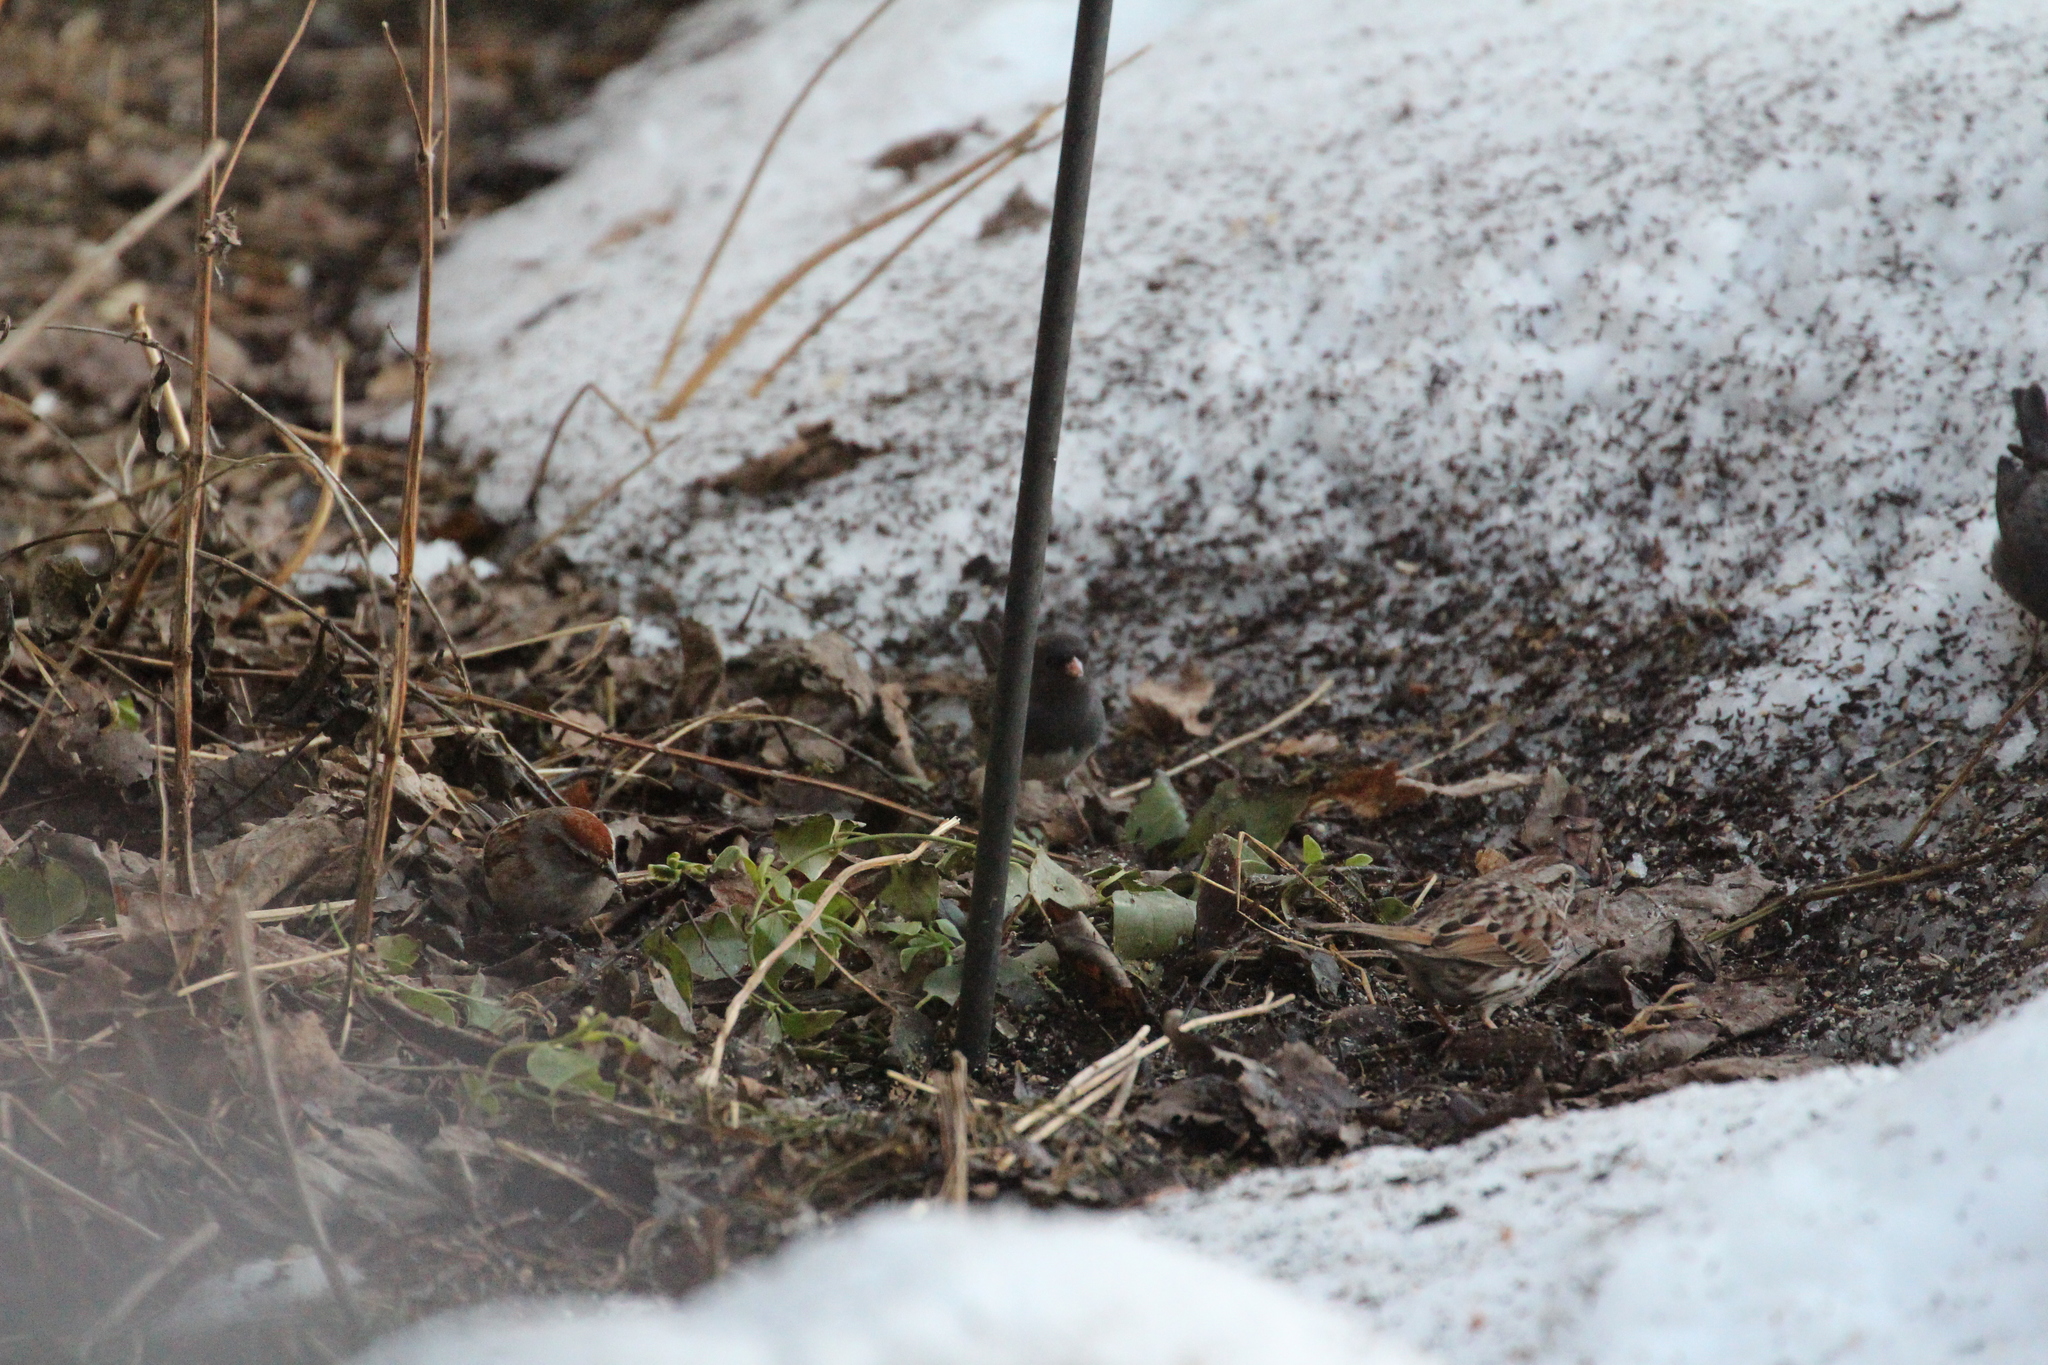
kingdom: Animalia
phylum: Chordata
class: Aves
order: Passeriformes
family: Passerellidae
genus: Spizella
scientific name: Spizella passerina
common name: Chipping sparrow
